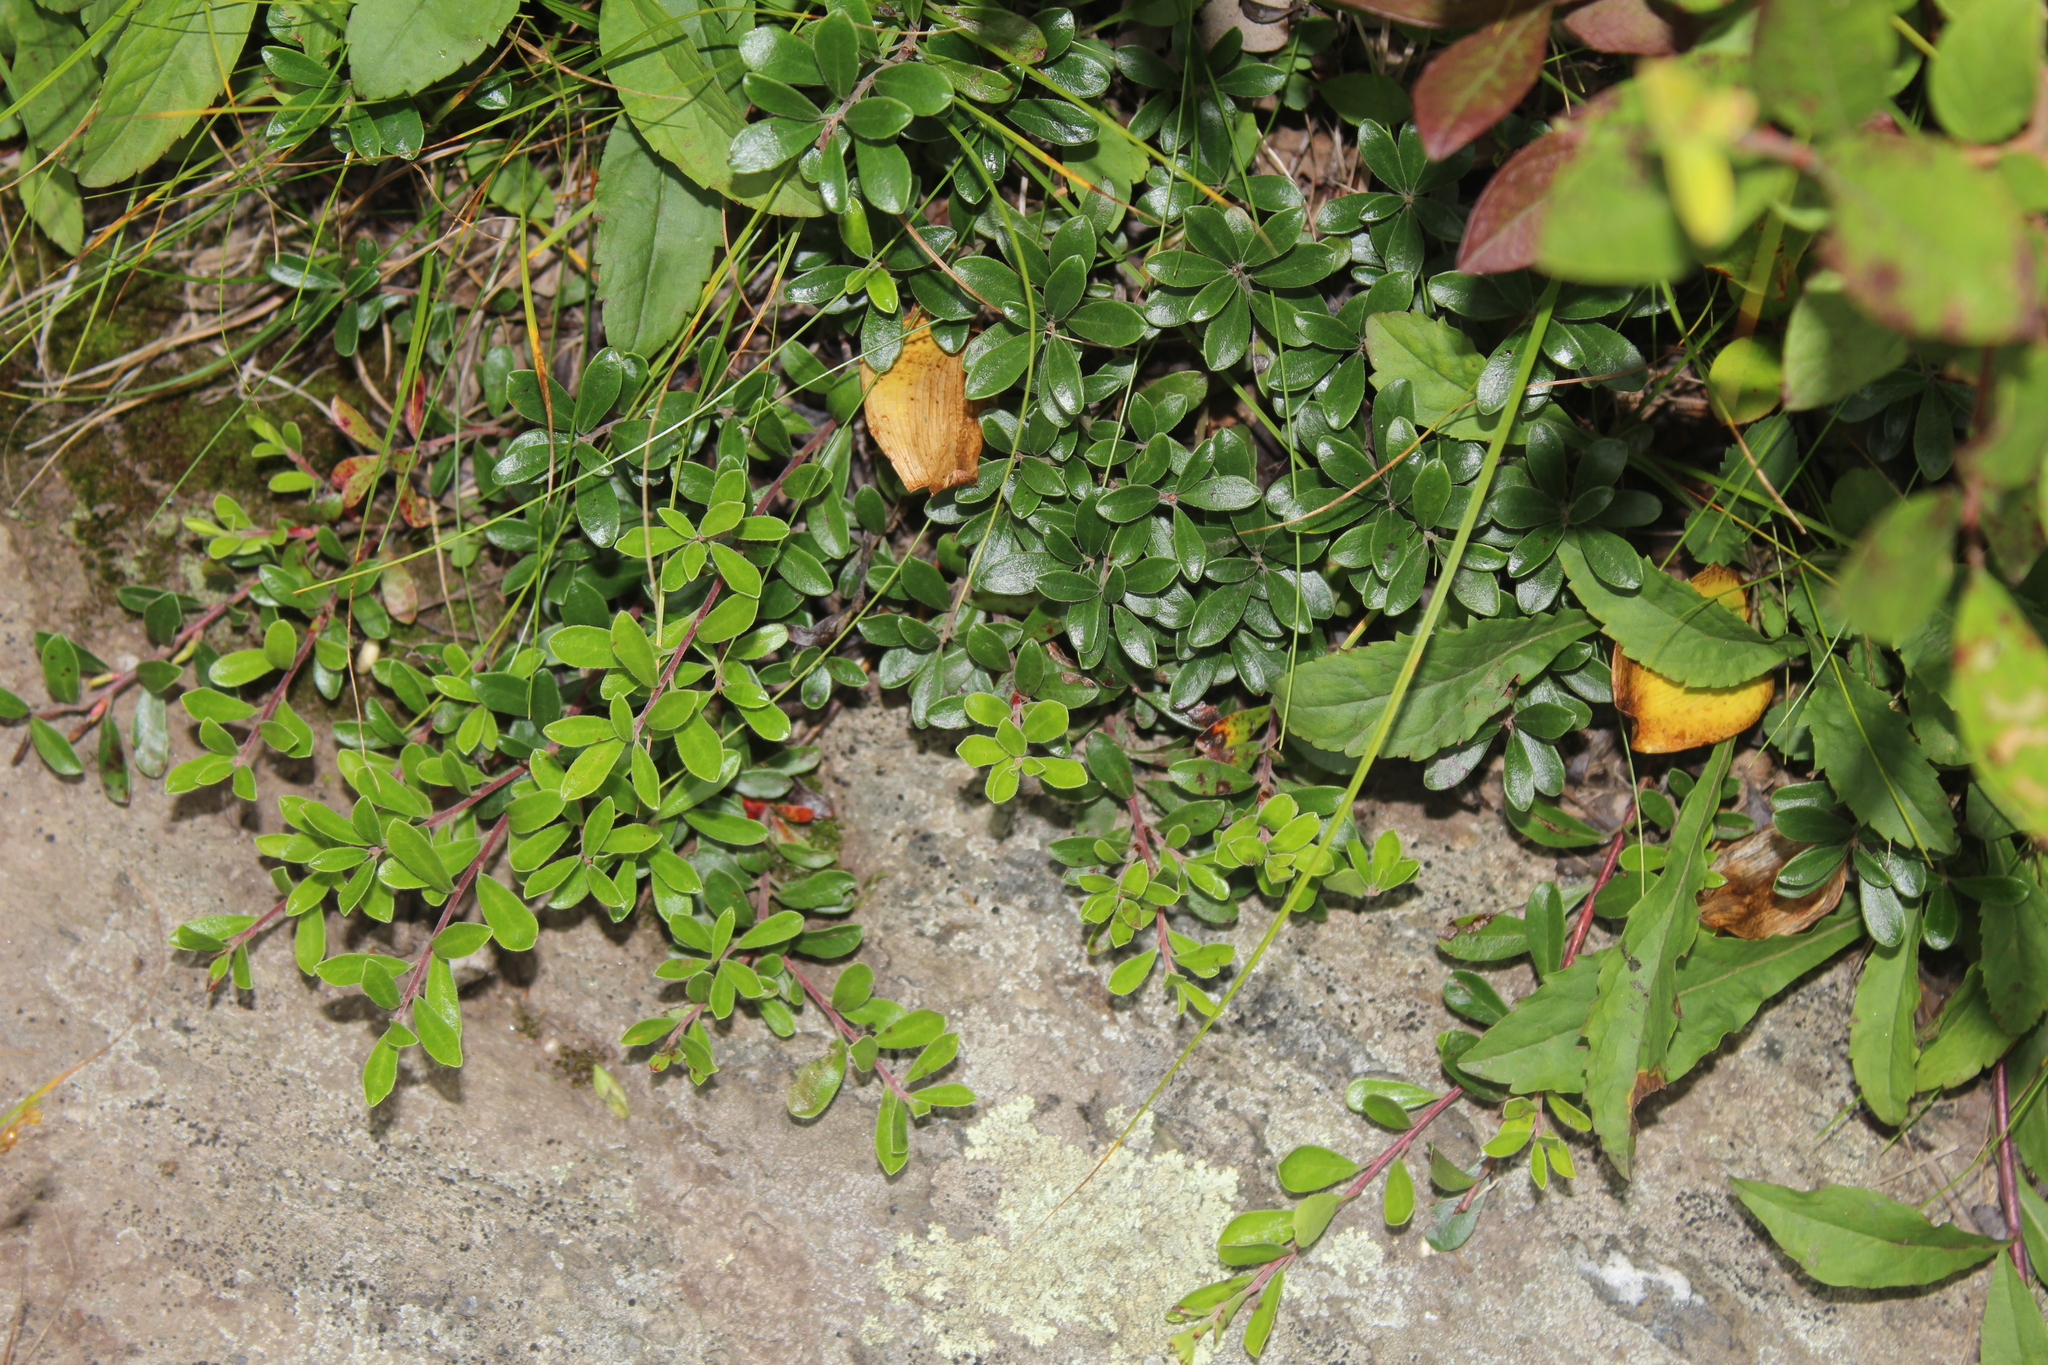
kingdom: Plantae
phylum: Tracheophyta
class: Magnoliopsida
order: Ericales
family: Ericaceae
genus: Arctostaphylos
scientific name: Arctostaphylos uva-ursi
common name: Bearberry
